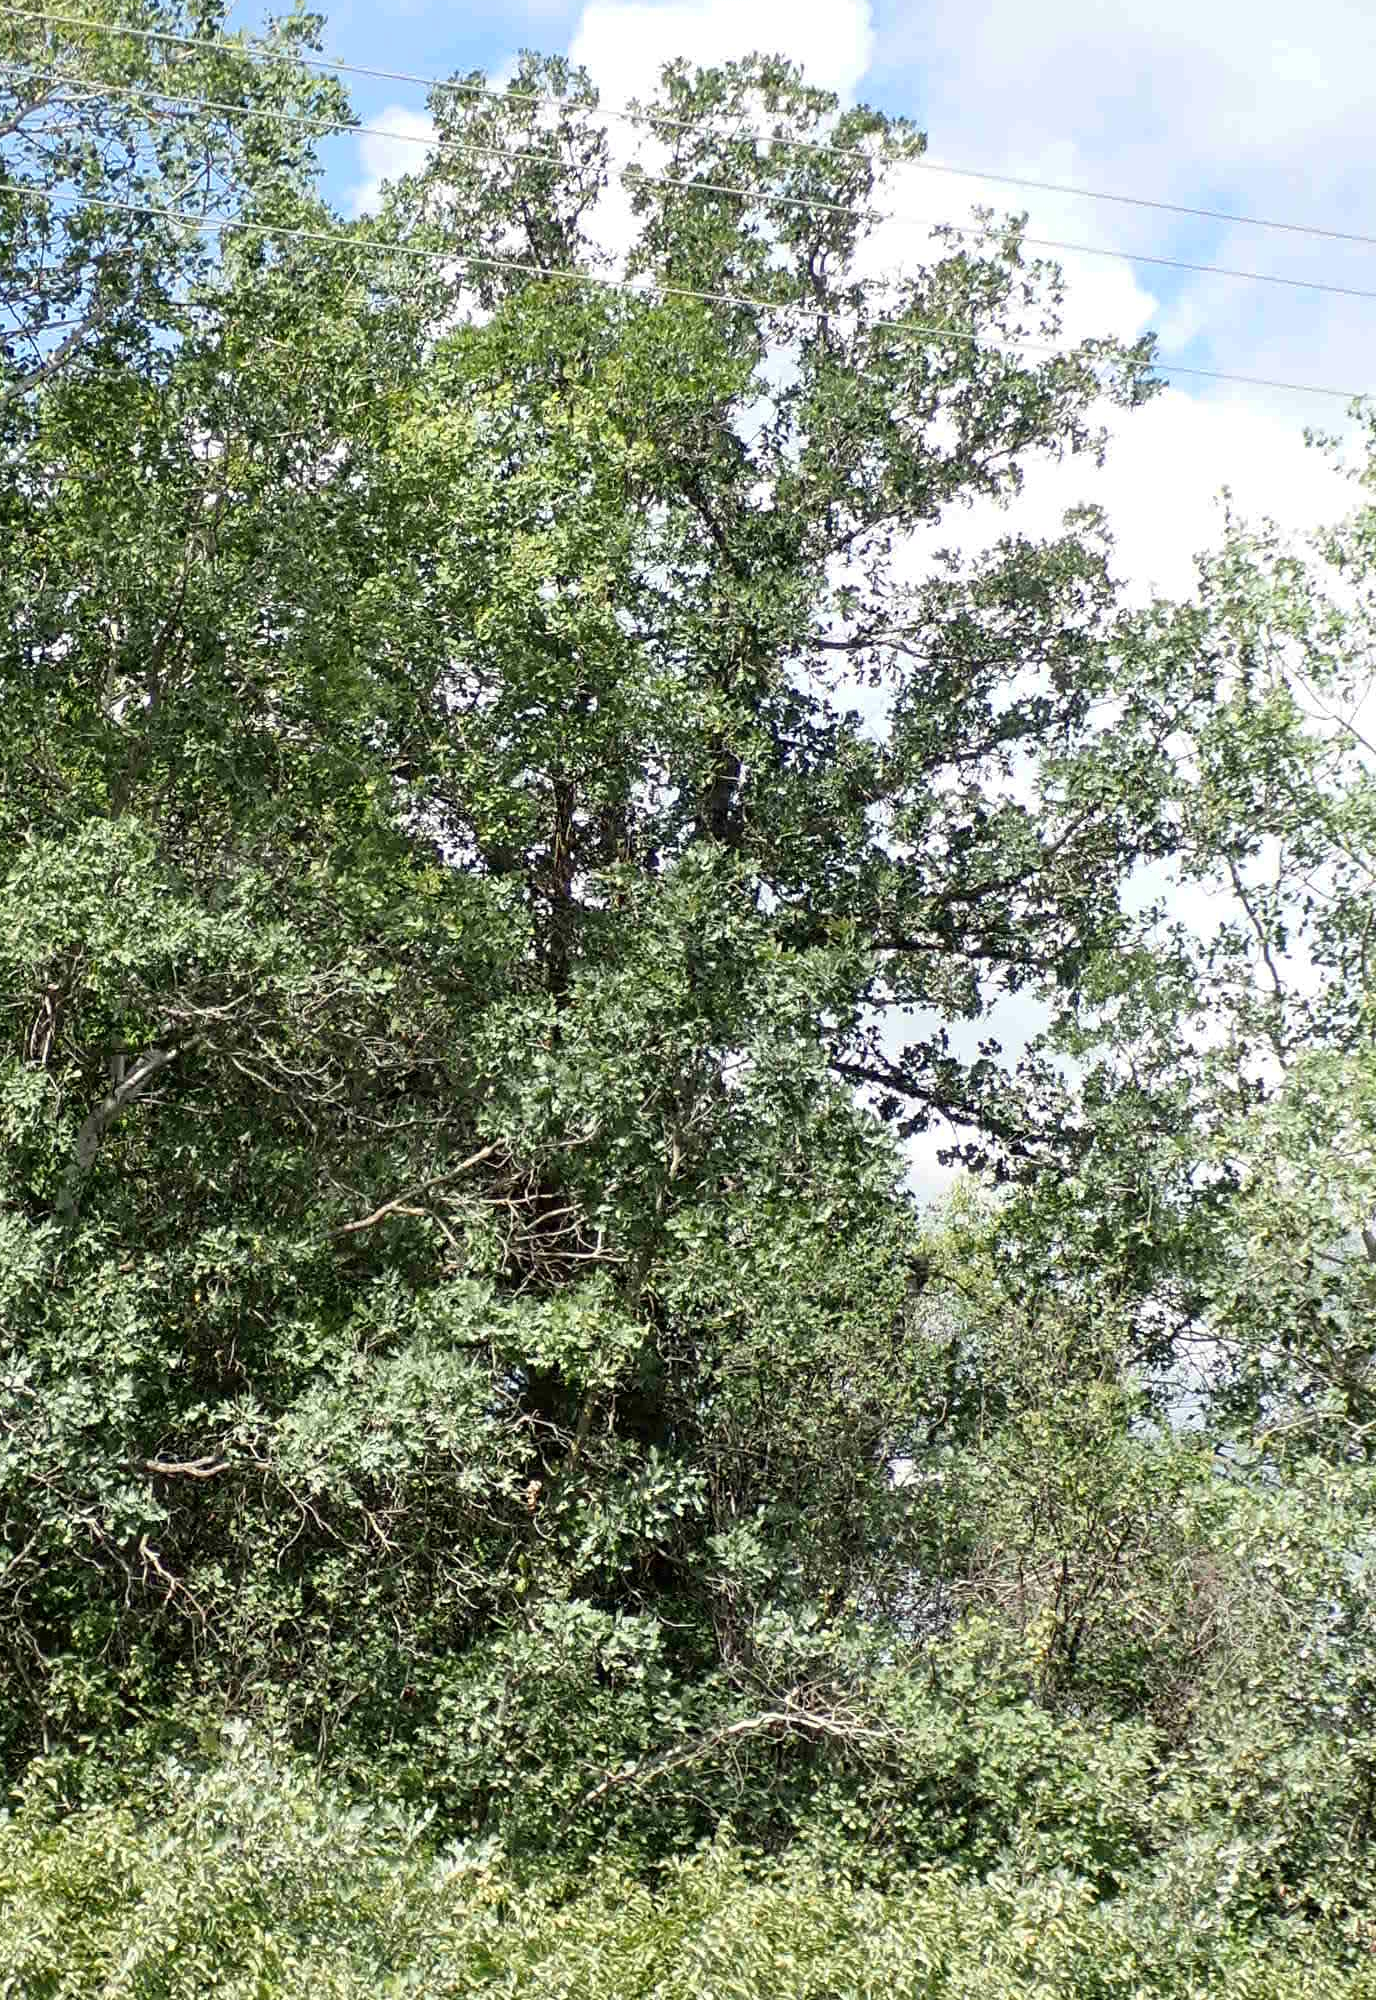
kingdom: Plantae
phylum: Tracheophyta
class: Magnoliopsida
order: Fagales
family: Fagaceae
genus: Quercus
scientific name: Quercus macrocarpa
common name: Bur oak
